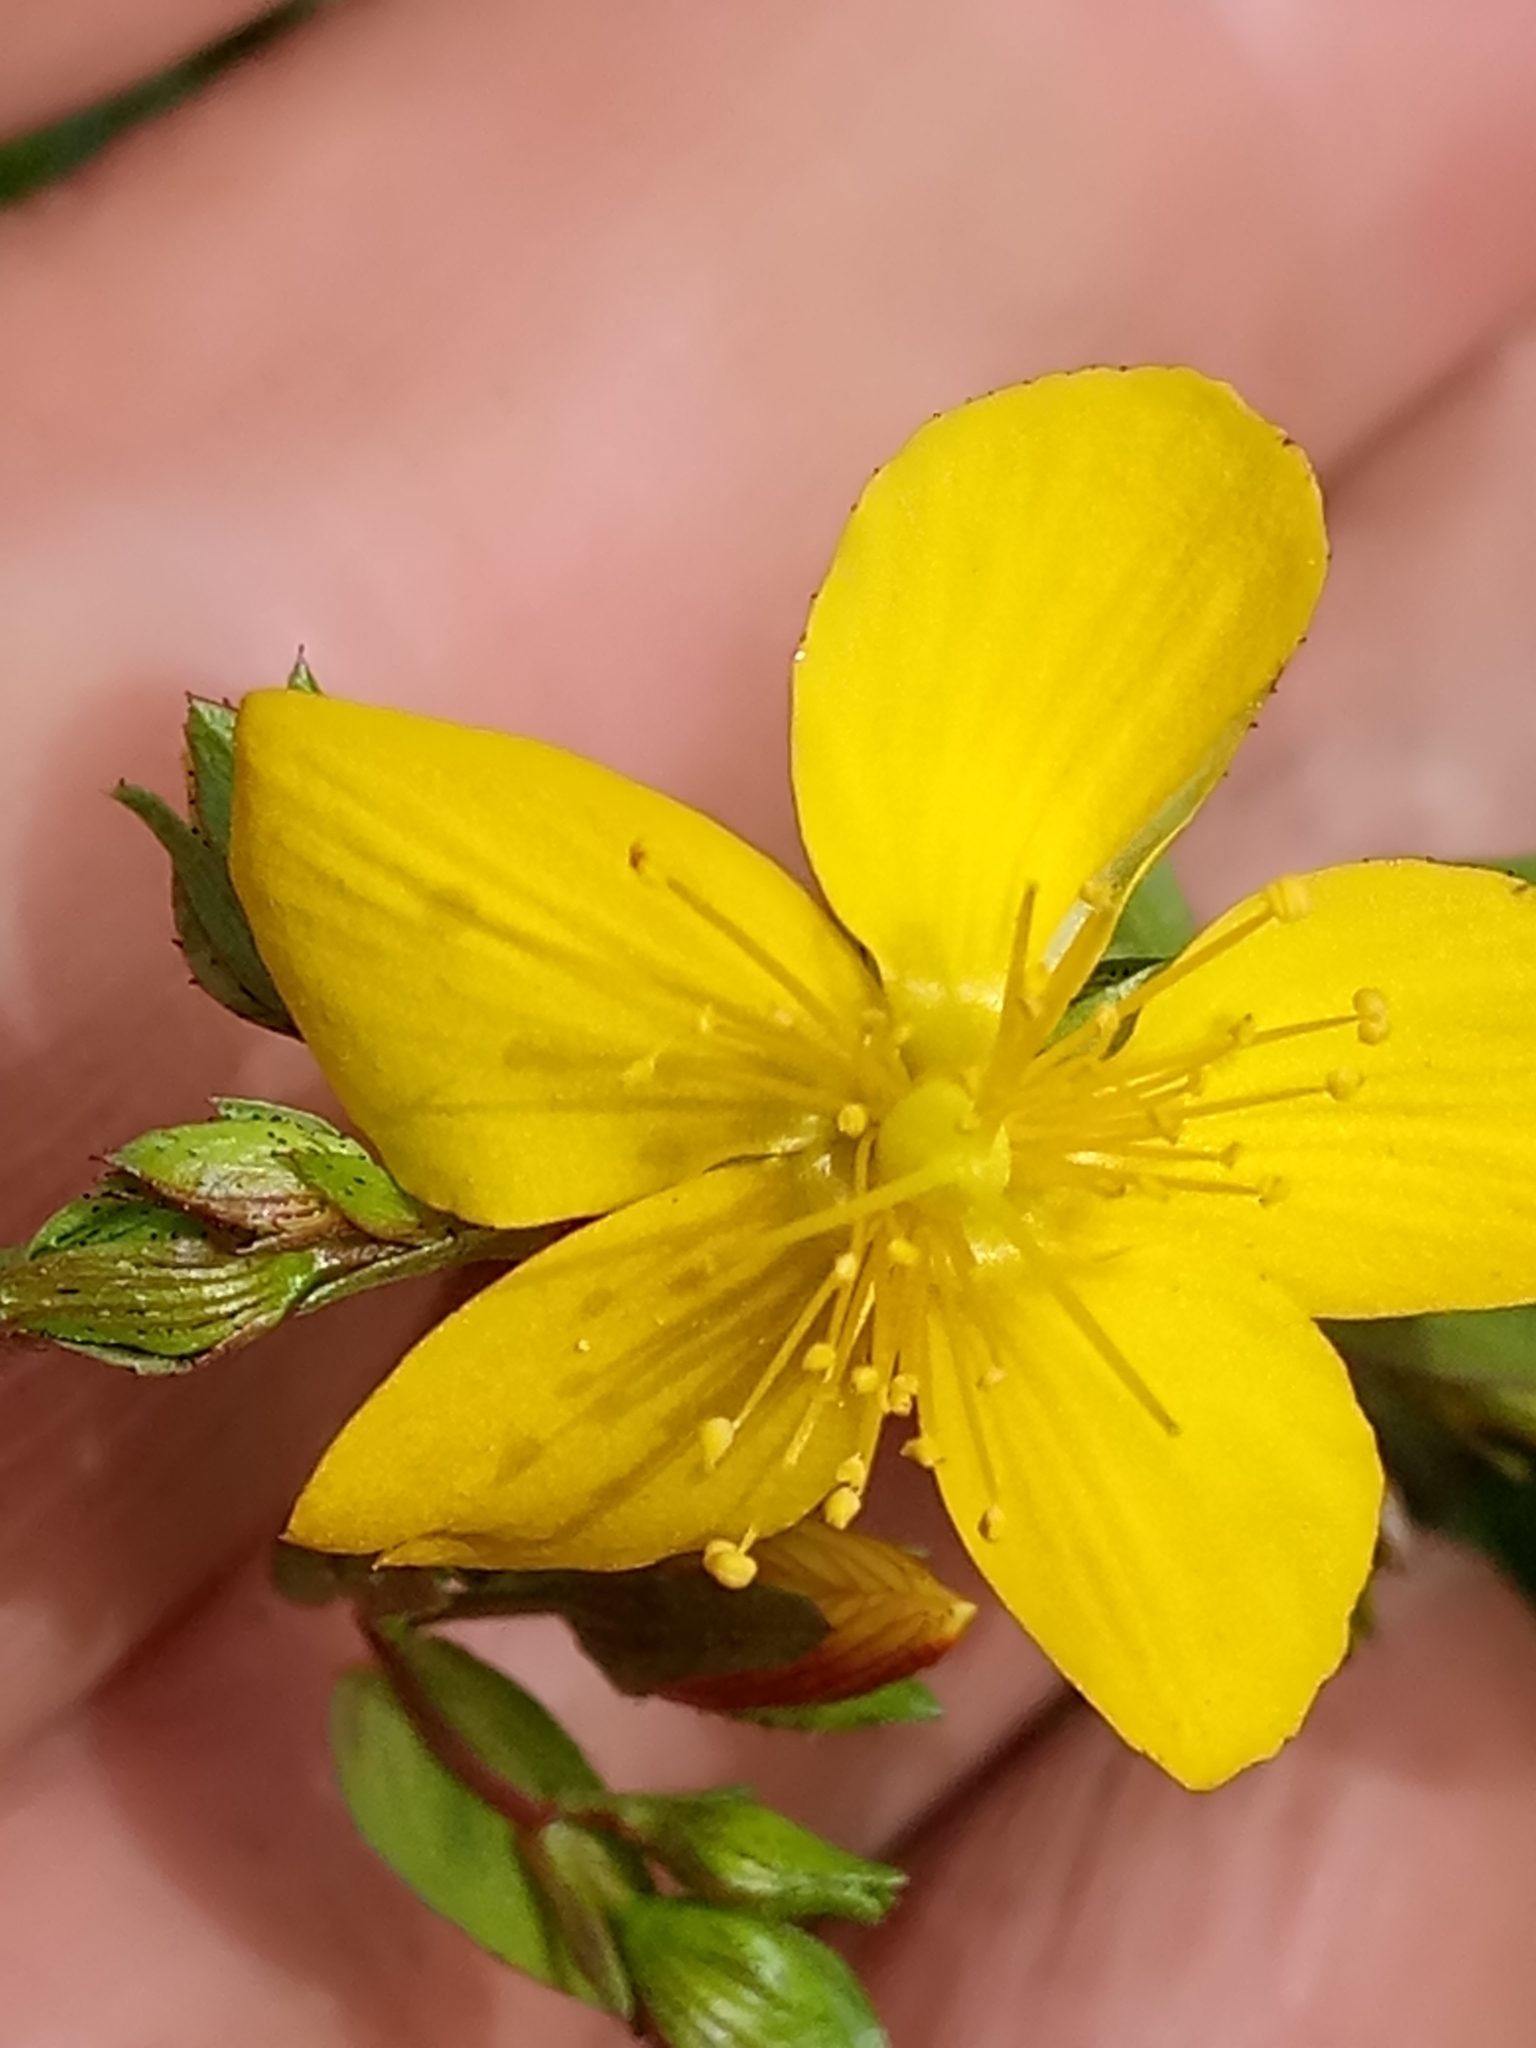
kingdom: Plantae
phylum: Tracheophyta
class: Magnoliopsida
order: Malpighiales
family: Hypericaceae
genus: Hypericum
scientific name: Hypericum australe
